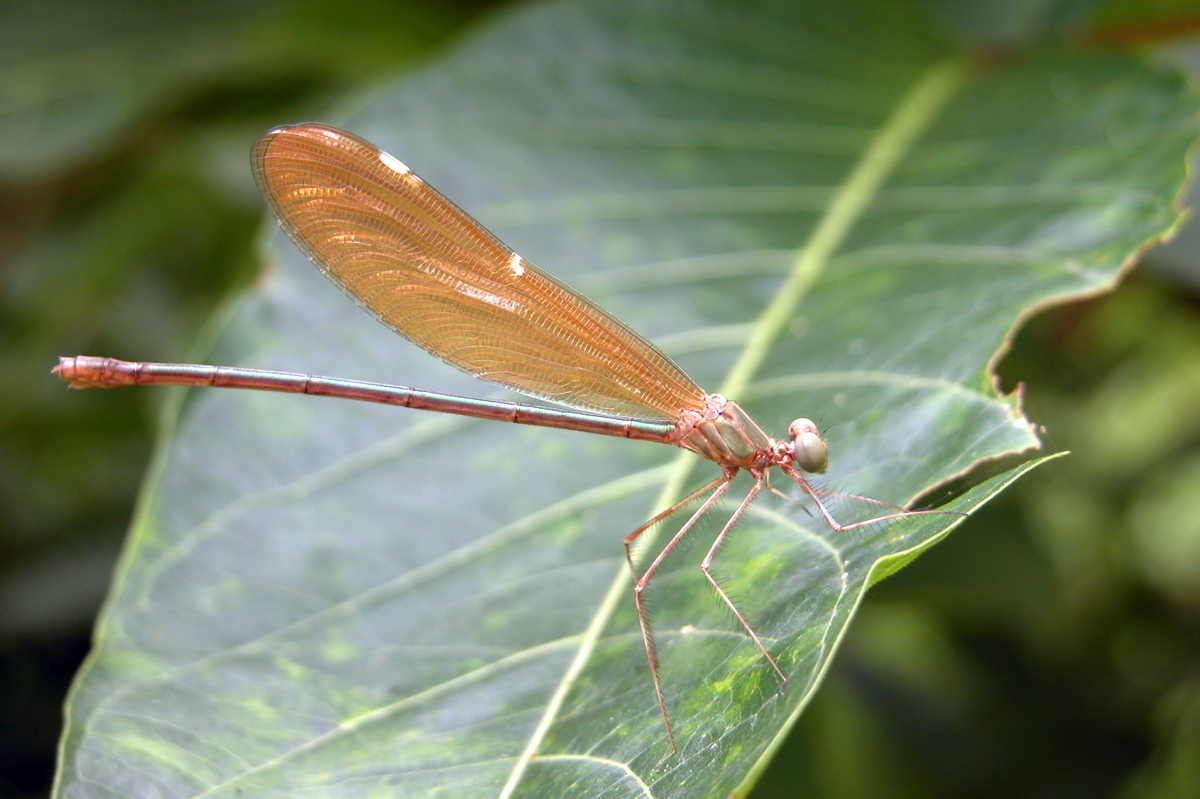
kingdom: Animalia
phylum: Arthropoda
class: Insecta
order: Odonata
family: Calopterygidae
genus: Neurobasis
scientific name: Neurobasis chinensis
